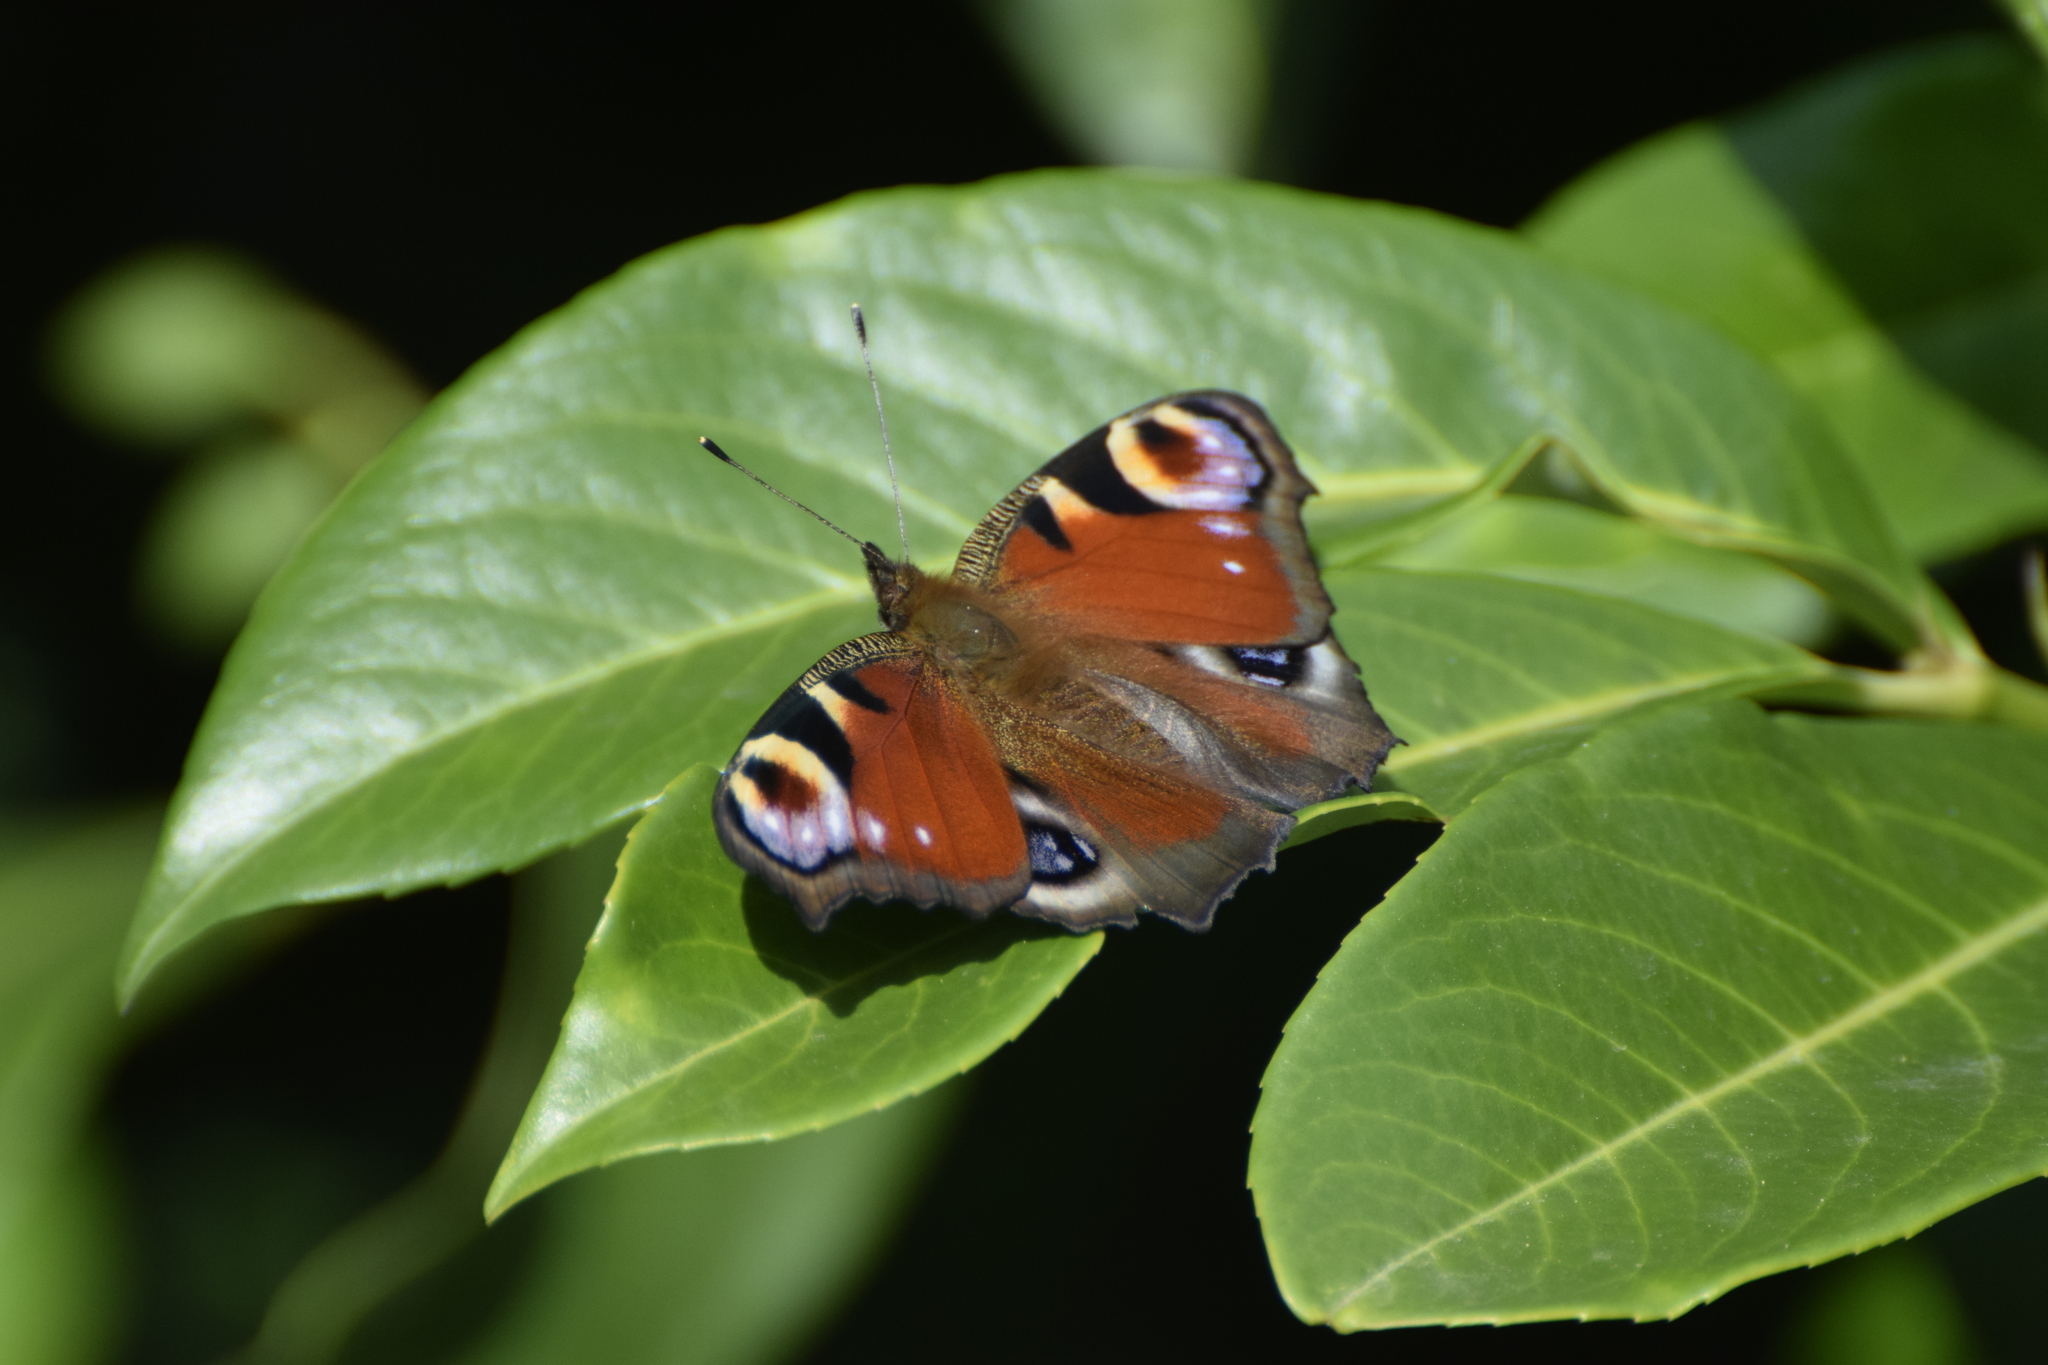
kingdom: Animalia
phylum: Arthropoda
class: Insecta
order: Lepidoptera
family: Nymphalidae
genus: Aglais
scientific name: Aglais io
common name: Peacock
